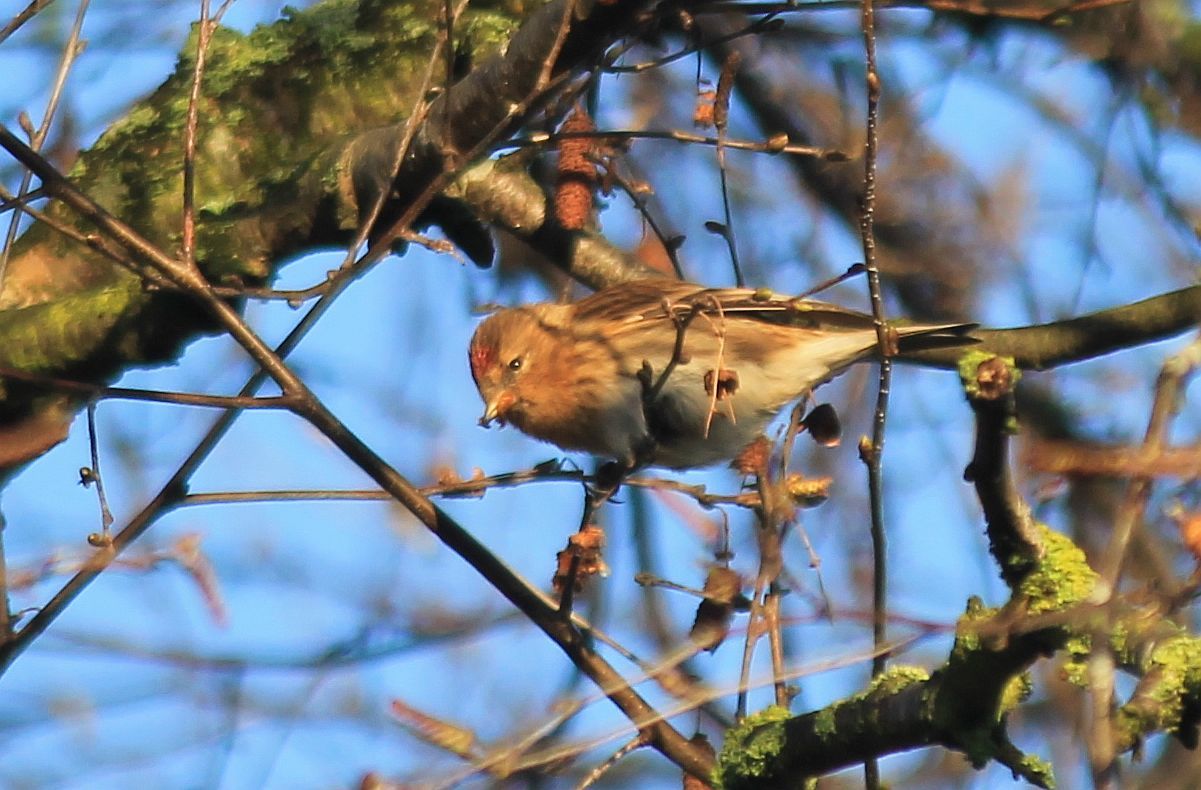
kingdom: Animalia
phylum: Chordata
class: Aves
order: Passeriformes
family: Fringillidae
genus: Acanthis
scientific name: Acanthis flammea
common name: Common redpoll
